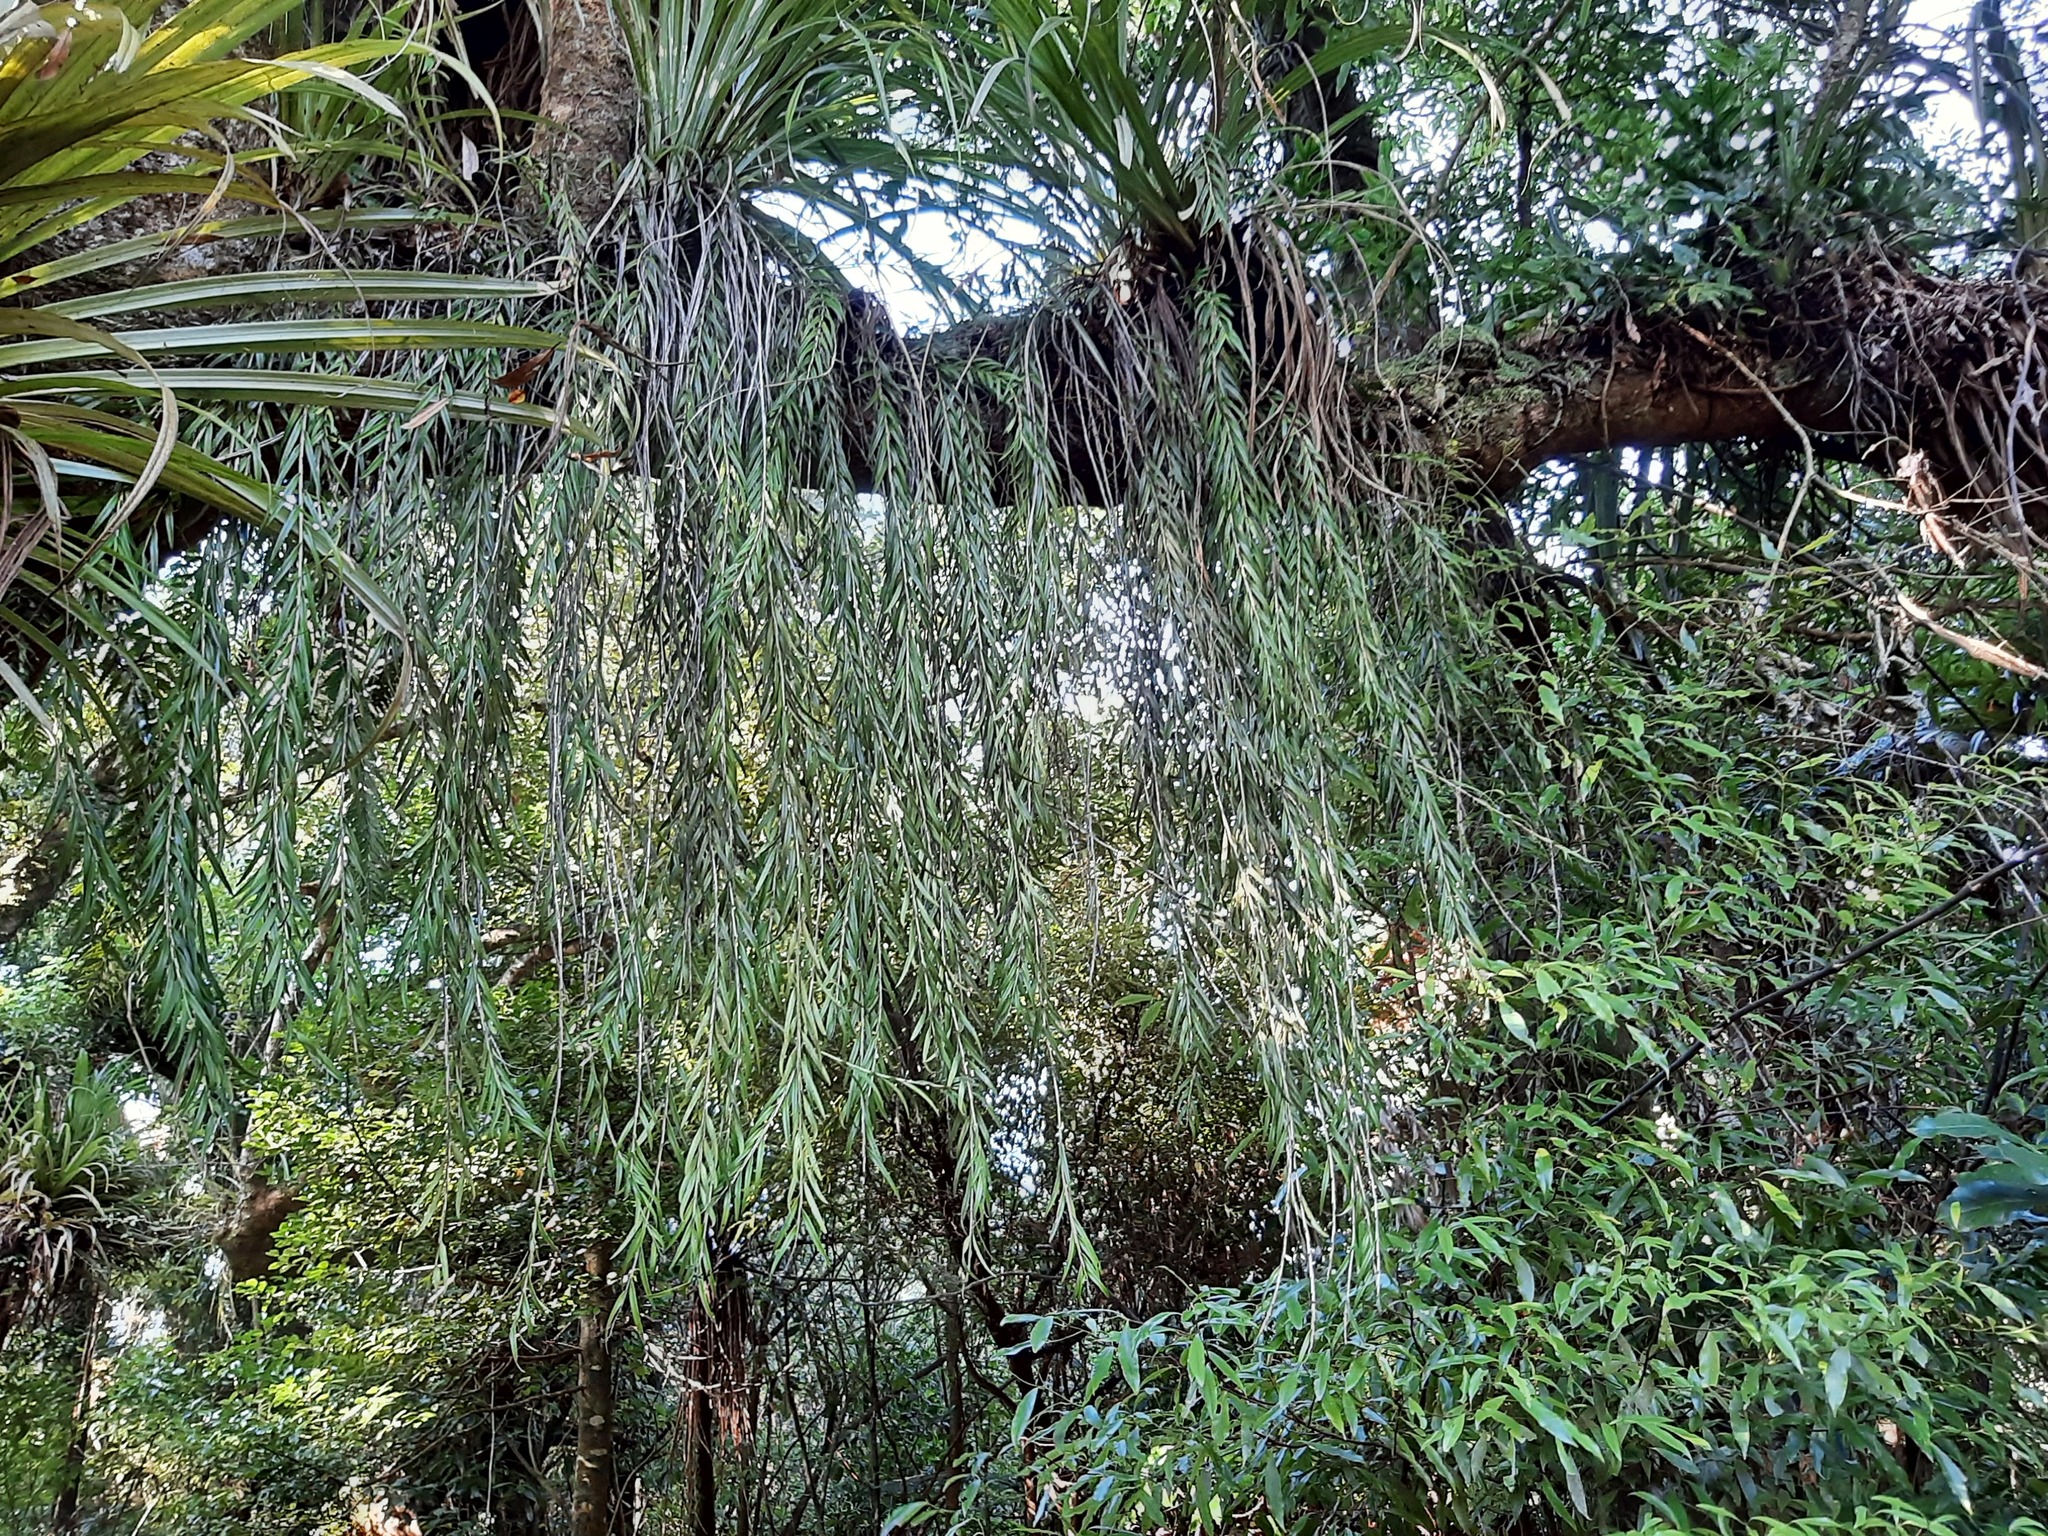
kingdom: Plantae
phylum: Tracheophyta
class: Liliopsida
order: Asparagales
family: Orchidaceae
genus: Earina
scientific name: Earina autumnalis
